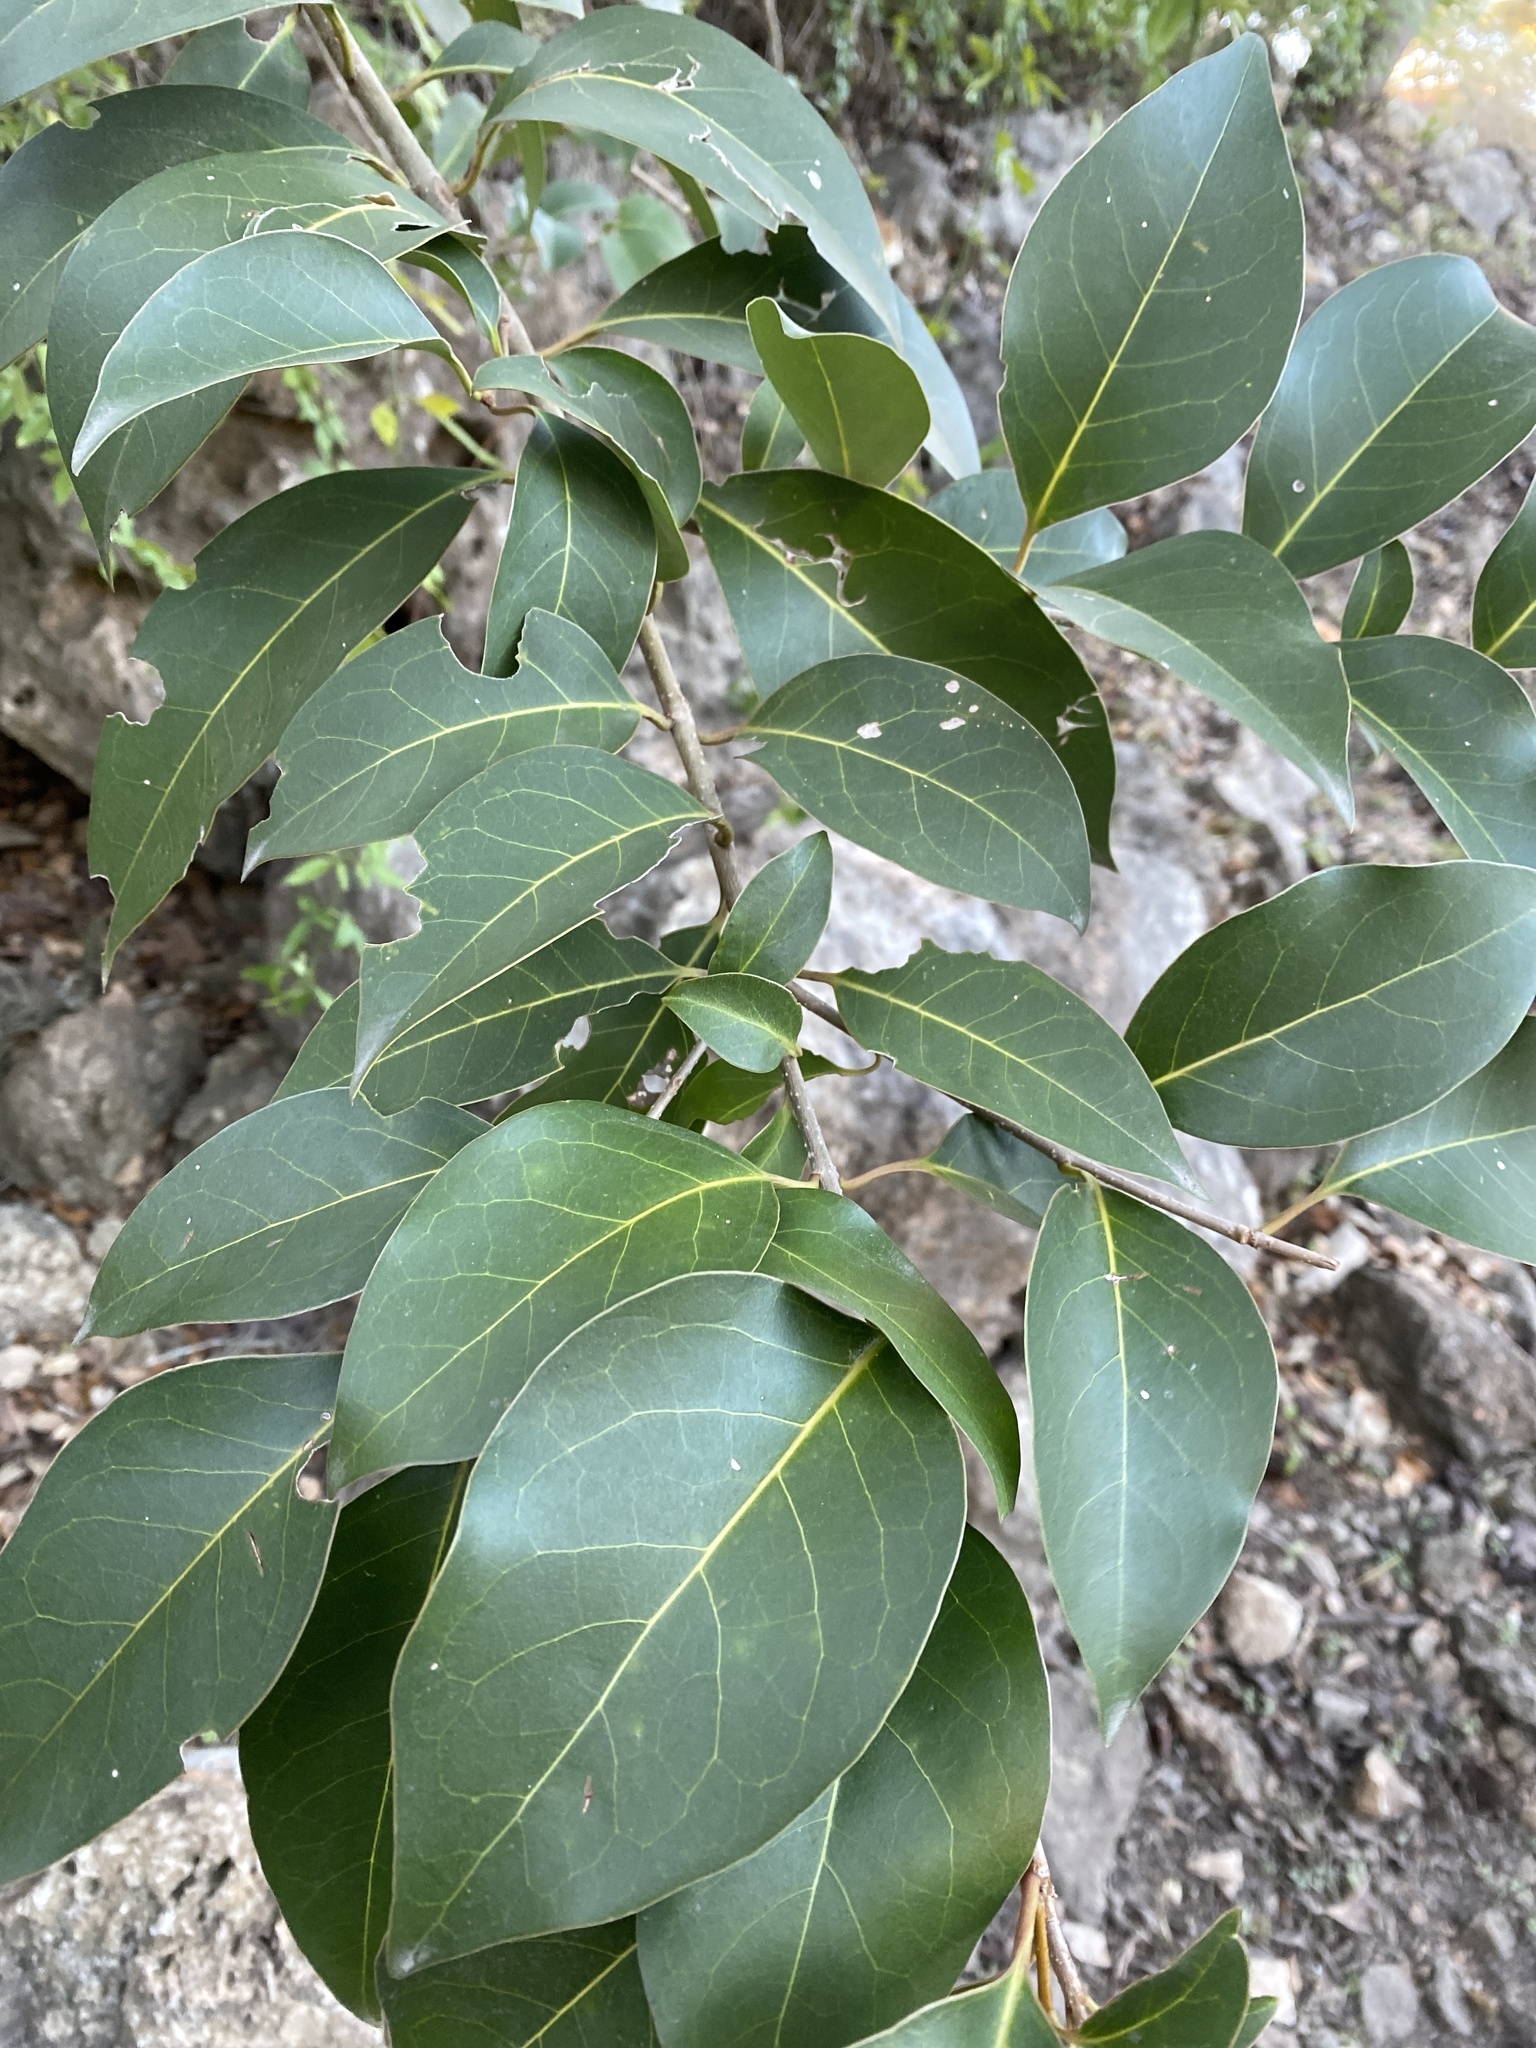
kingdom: Plantae
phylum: Tracheophyta
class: Magnoliopsida
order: Lamiales
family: Oleaceae
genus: Ligustrum
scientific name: Ligustrum lucidum
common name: Glossy privet
